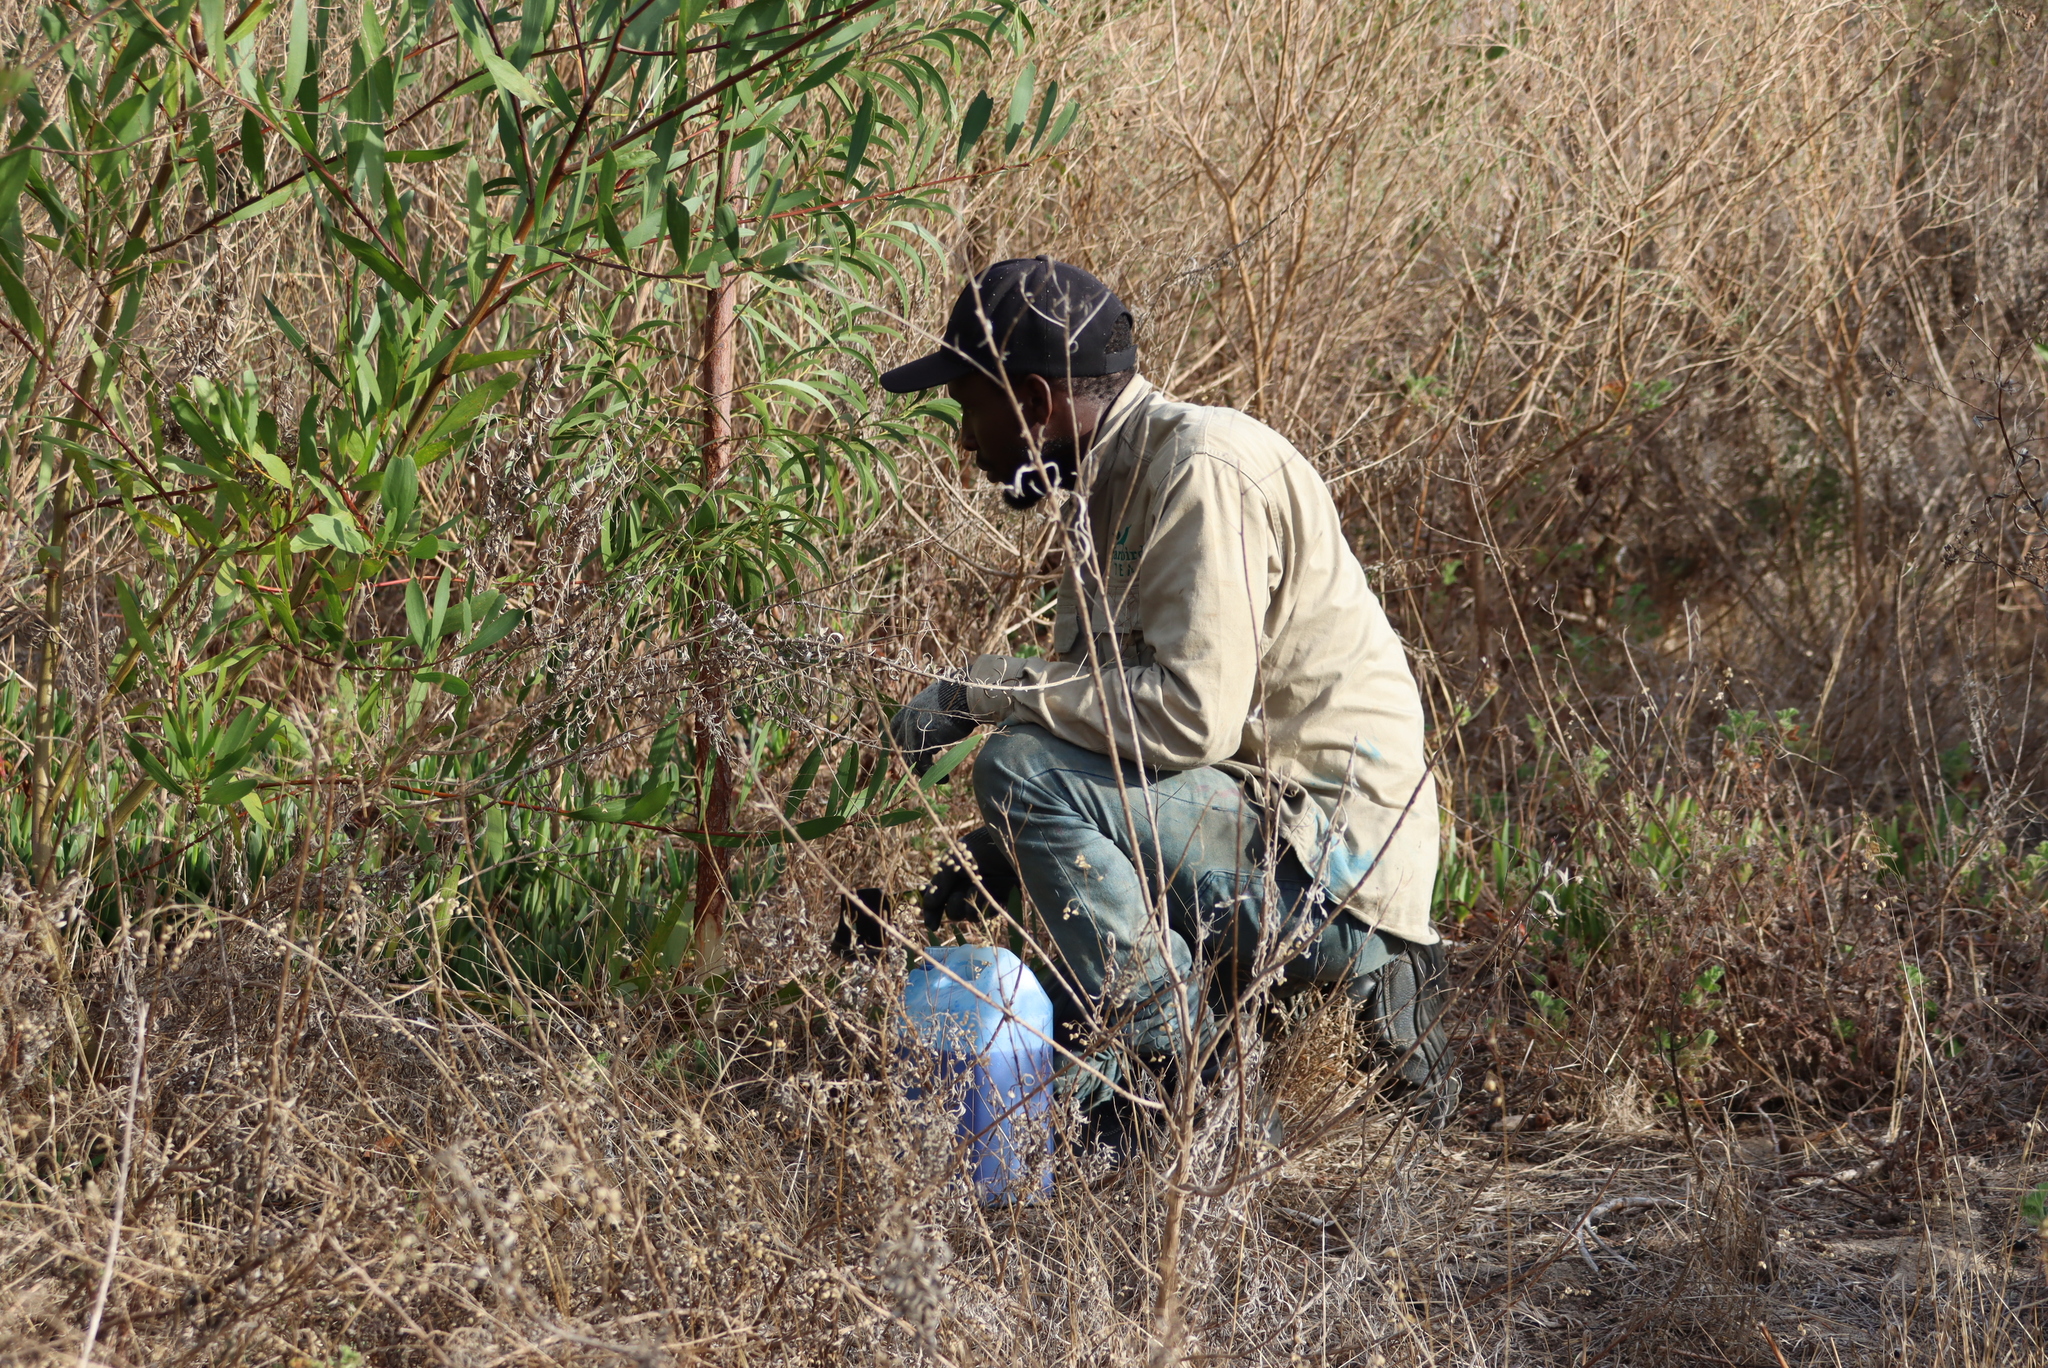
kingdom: Plantae
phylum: Tracheophyta
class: Magnoliopsida
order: Fabales
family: Fabaceae
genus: Acacia
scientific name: Acacia implexa
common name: Black wattle
